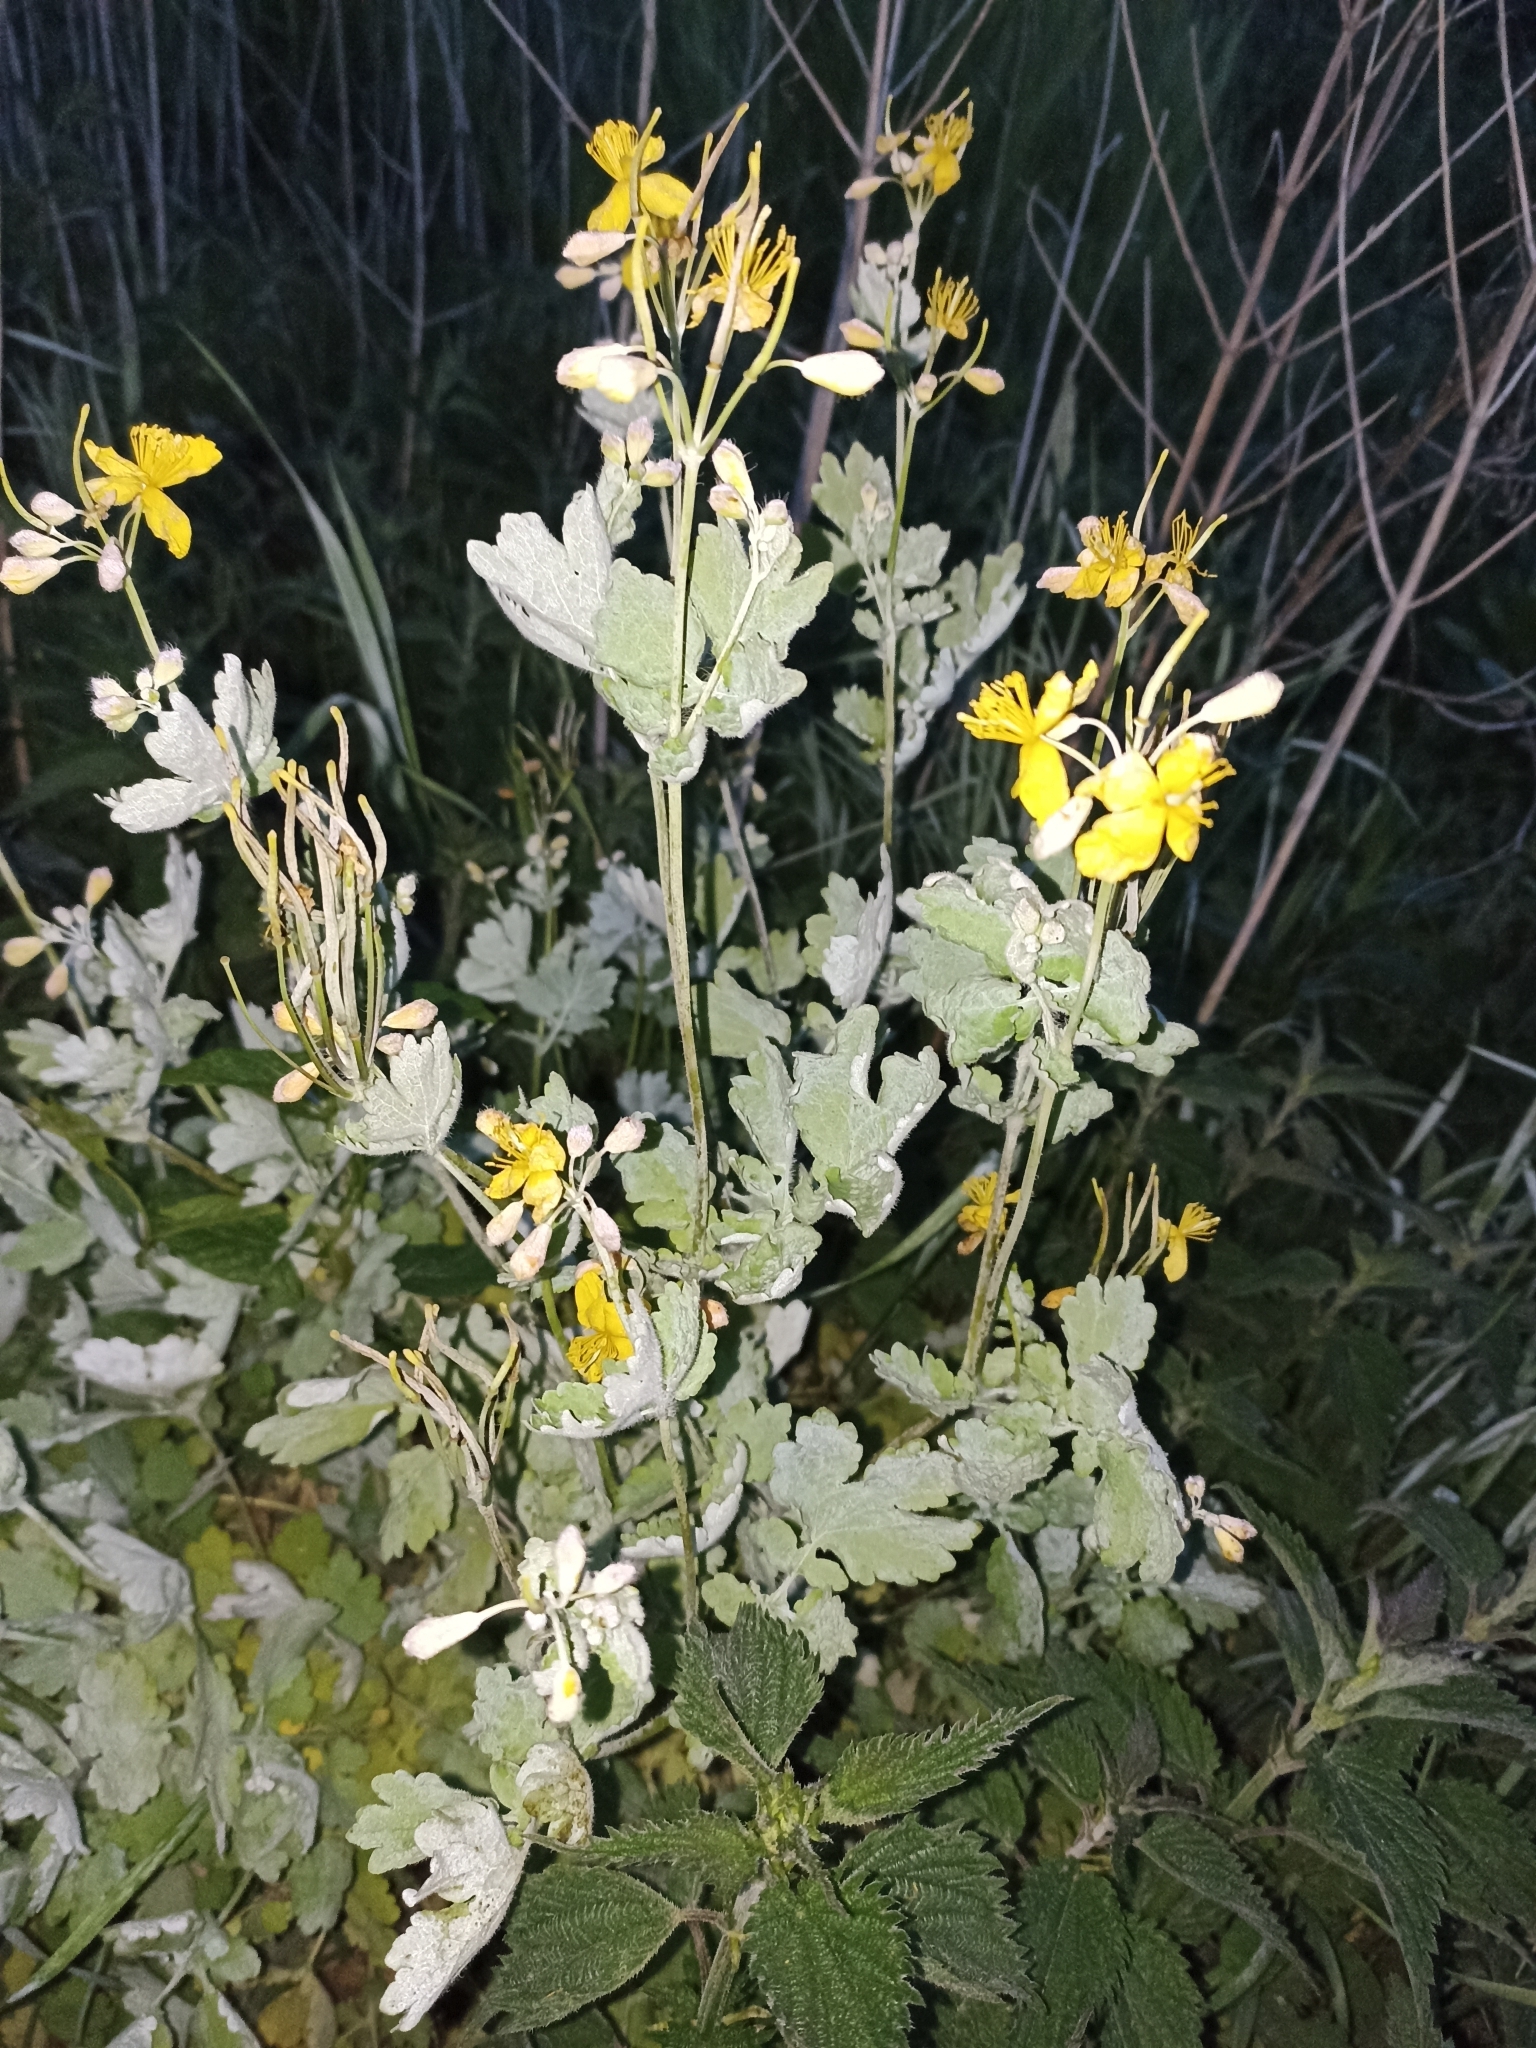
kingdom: Plantae
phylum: Tracheophyta
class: Magnoliopsida
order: Ranunculales
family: Papaveraceae
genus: Chelidonium
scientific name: Chelidonium majus
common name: Greater celandine
